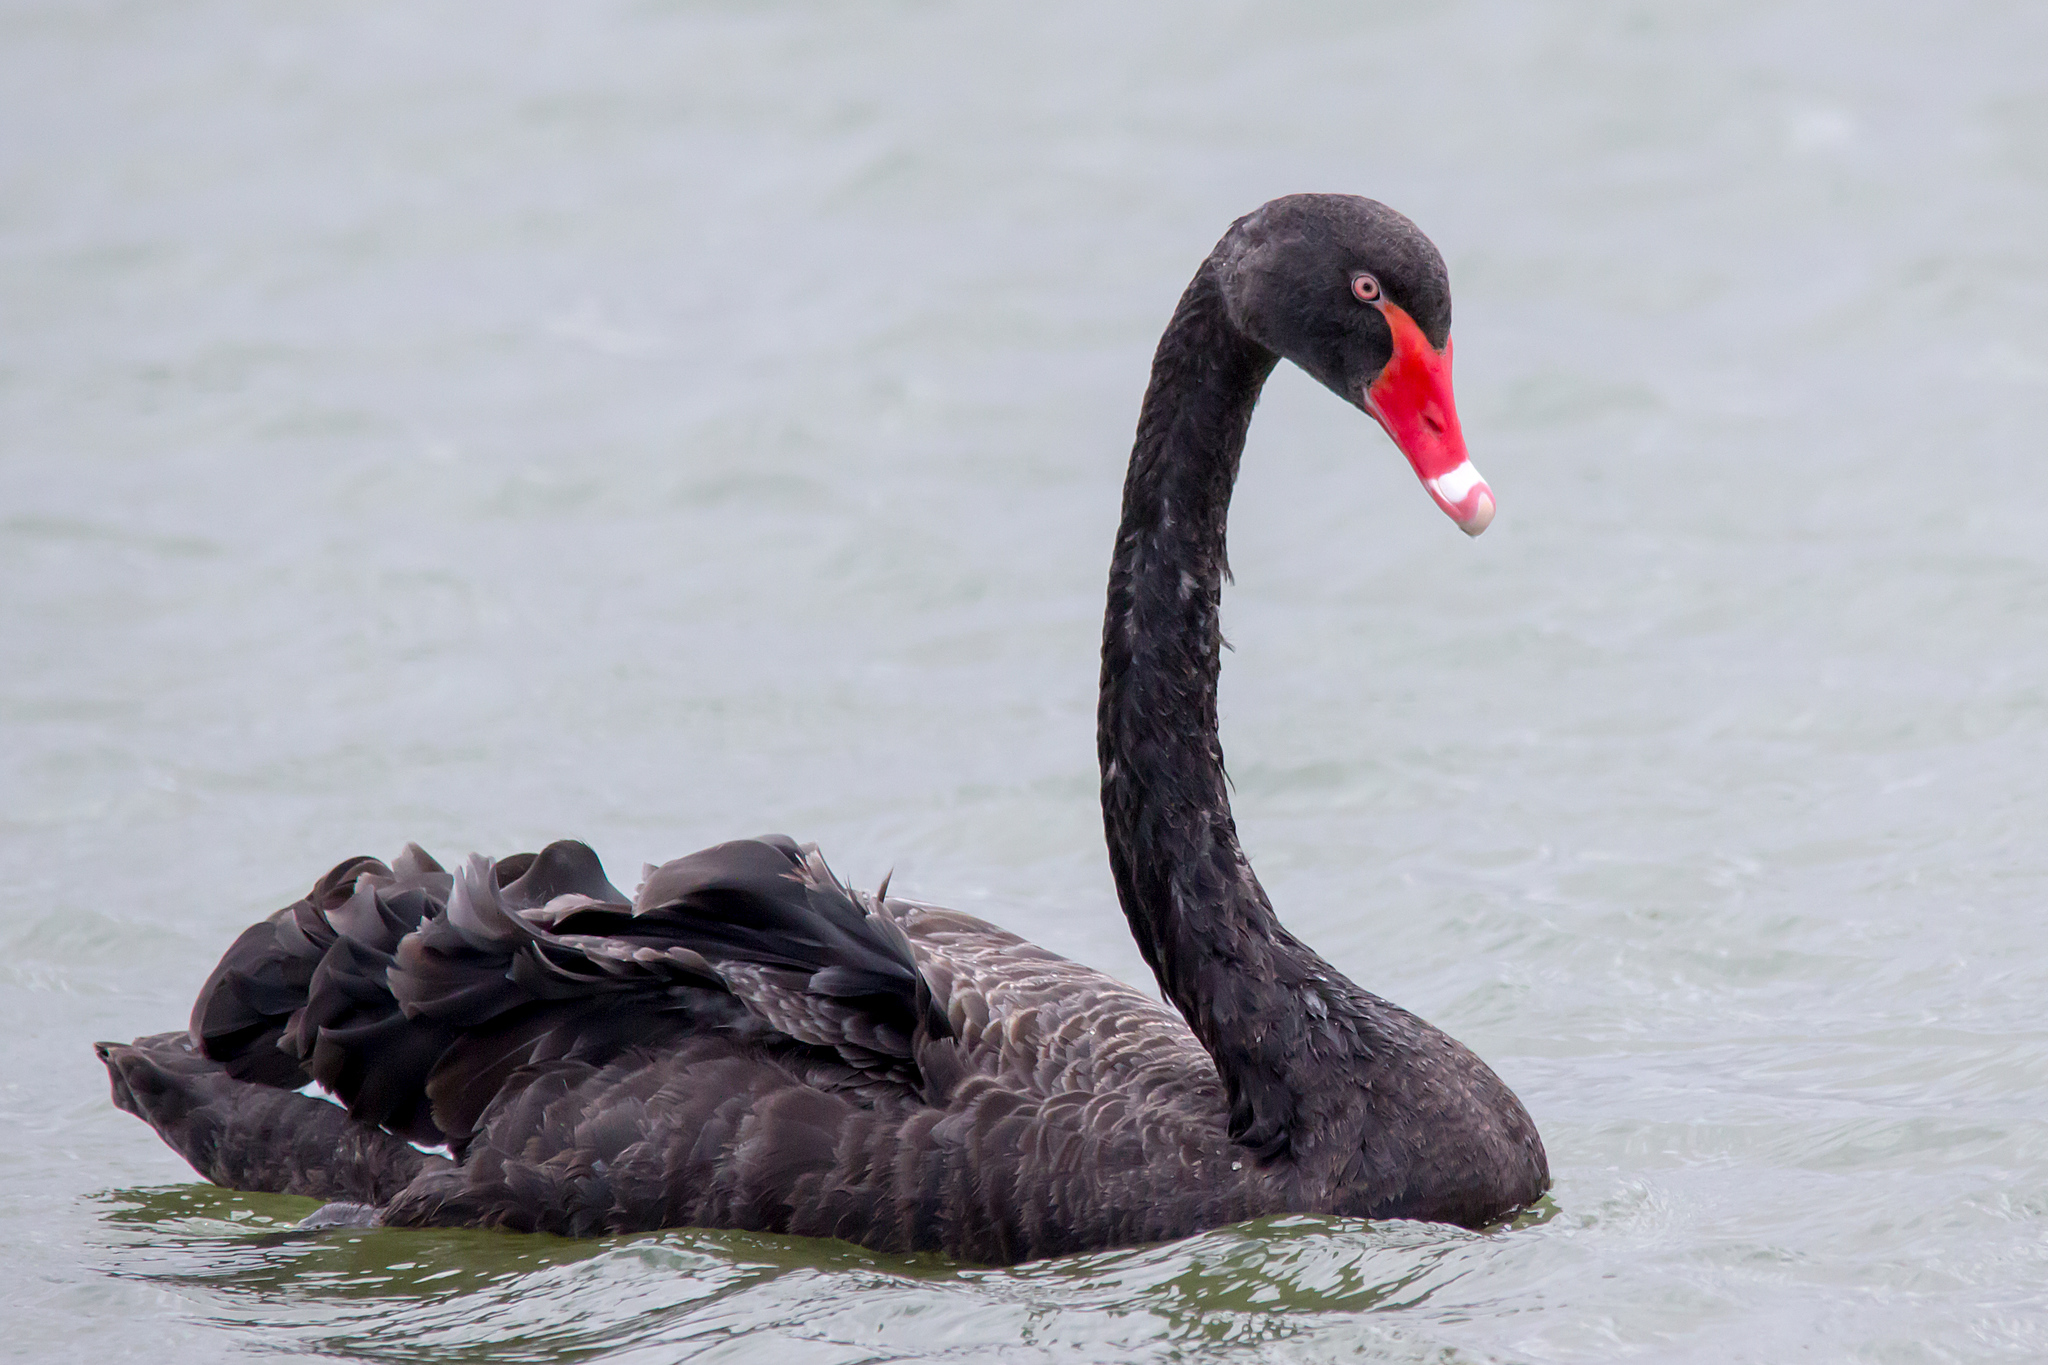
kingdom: Animalia
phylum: Chordata
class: Aves
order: Anseriformes
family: Anatidae
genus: Cygnus
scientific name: Cygnus atratus
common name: Black swan
